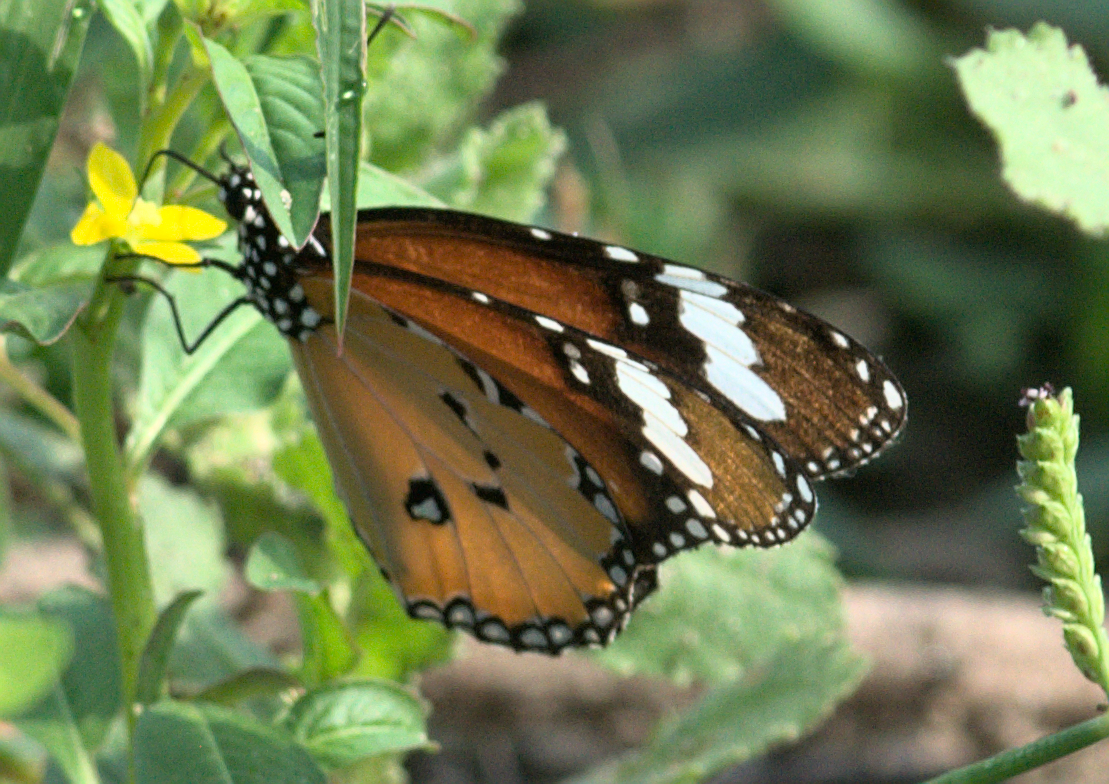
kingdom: Animalia
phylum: Arthropoda
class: Insecta
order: Lepidoptera
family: Nymphalidae
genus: Danaus
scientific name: Danaus chrysippus
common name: Plain tiger
